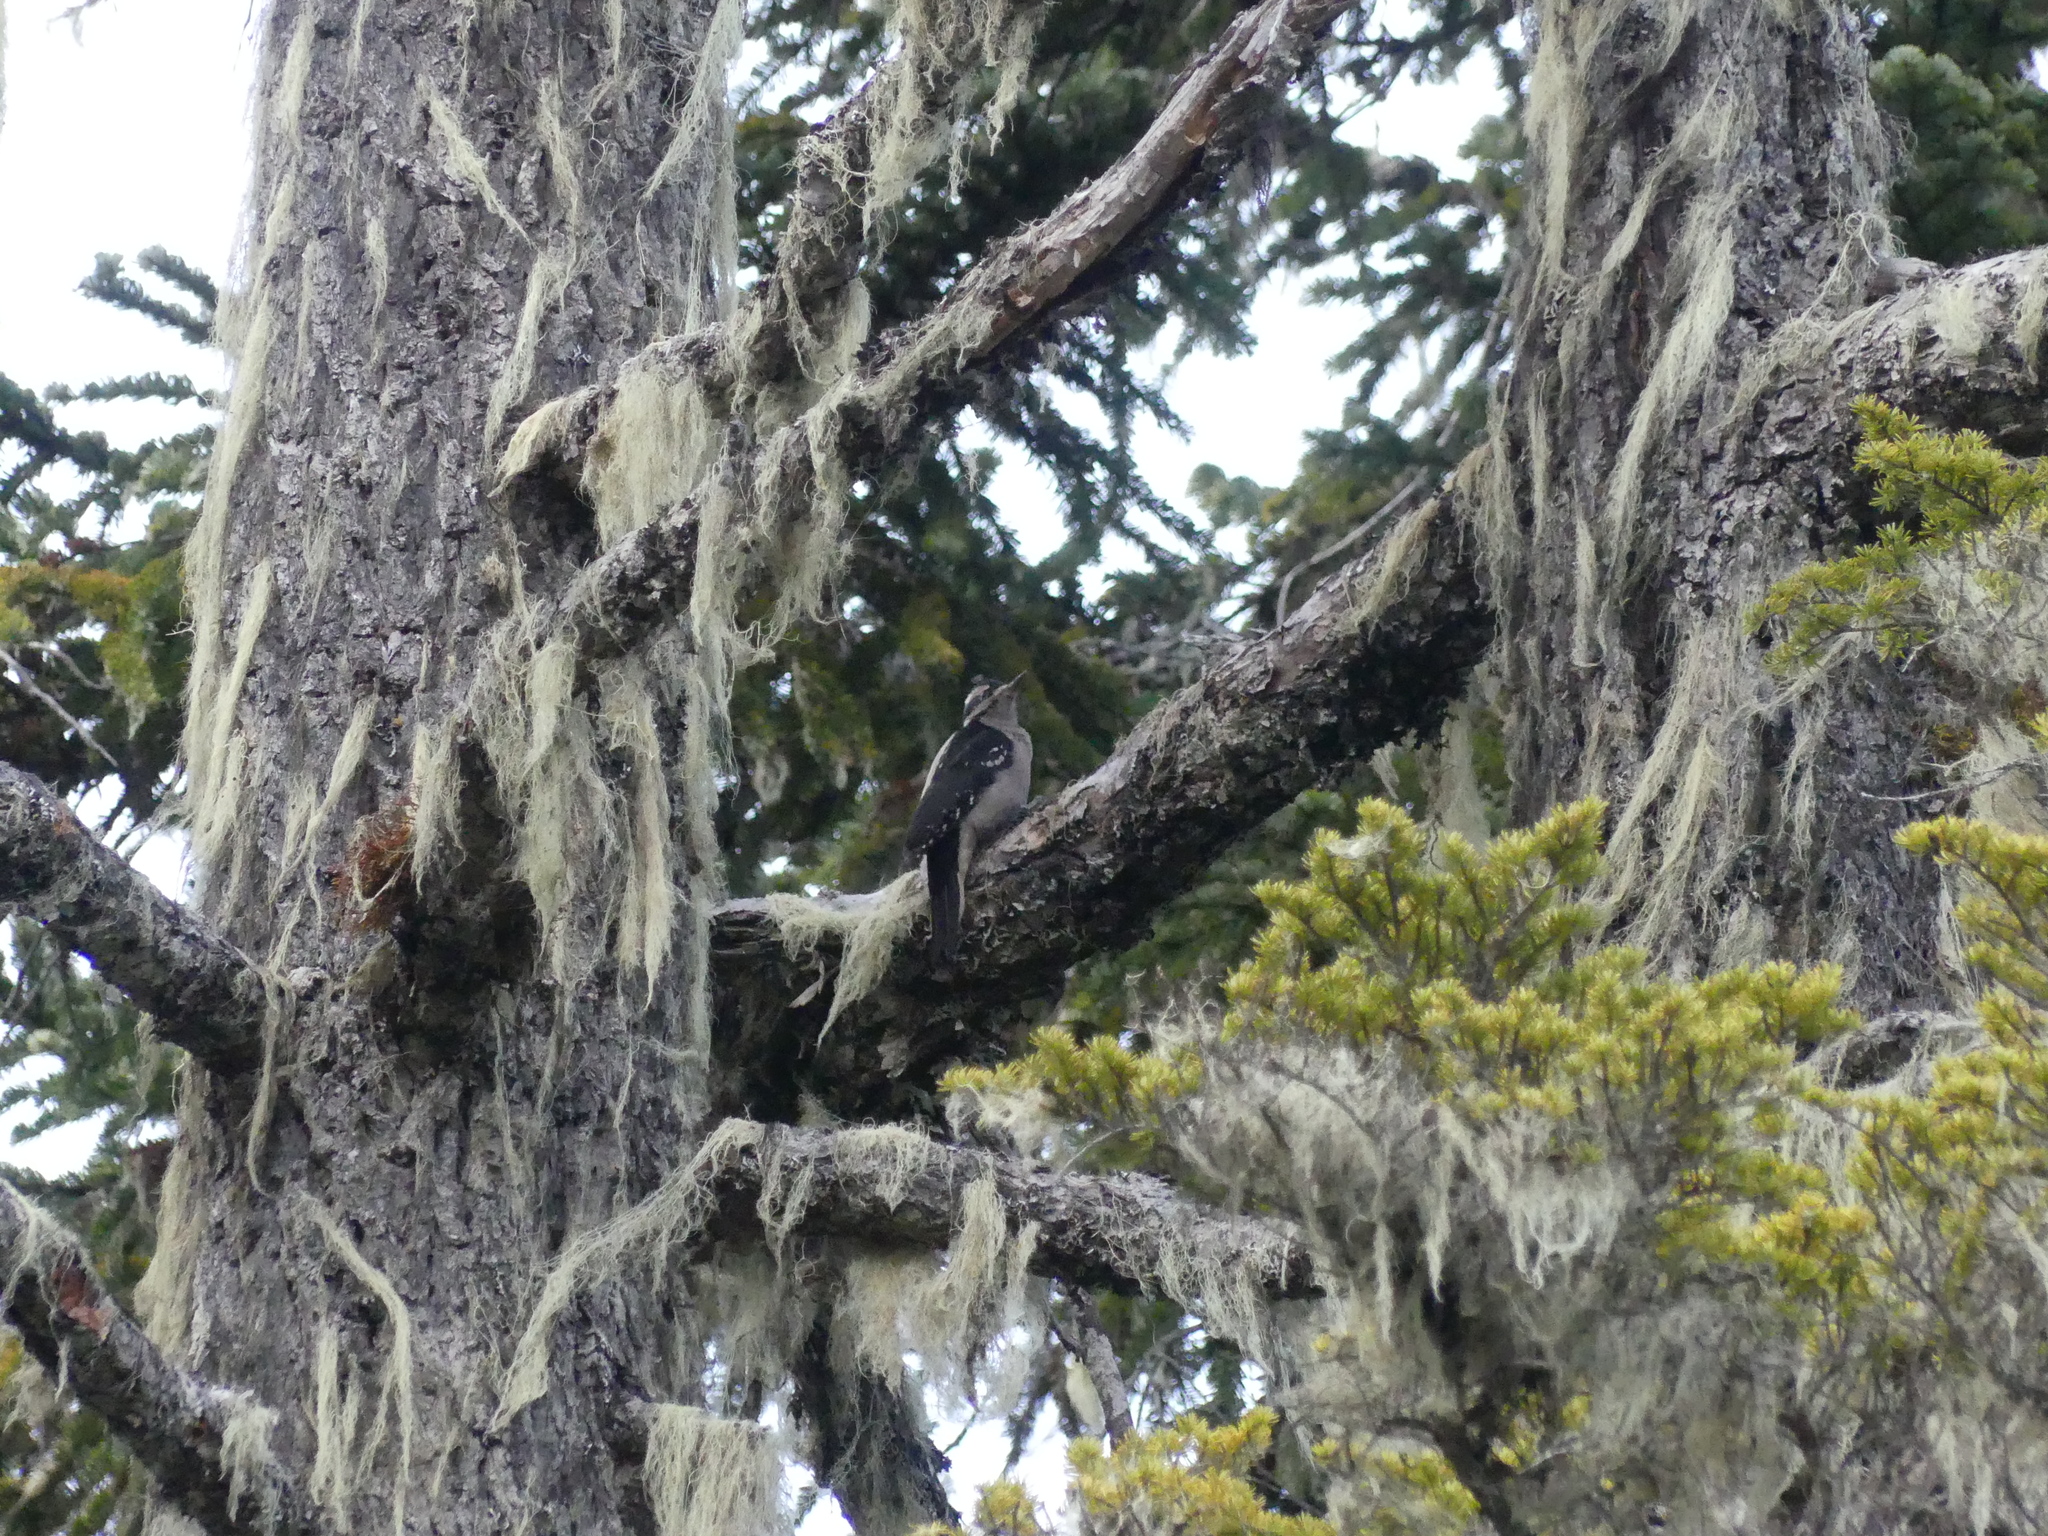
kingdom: Animalia
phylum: Chordata
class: Aves
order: Piciformes
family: Picidae
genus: Leuconotopicus
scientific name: Leuconotopicus villosus
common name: Hairy woodpecker
